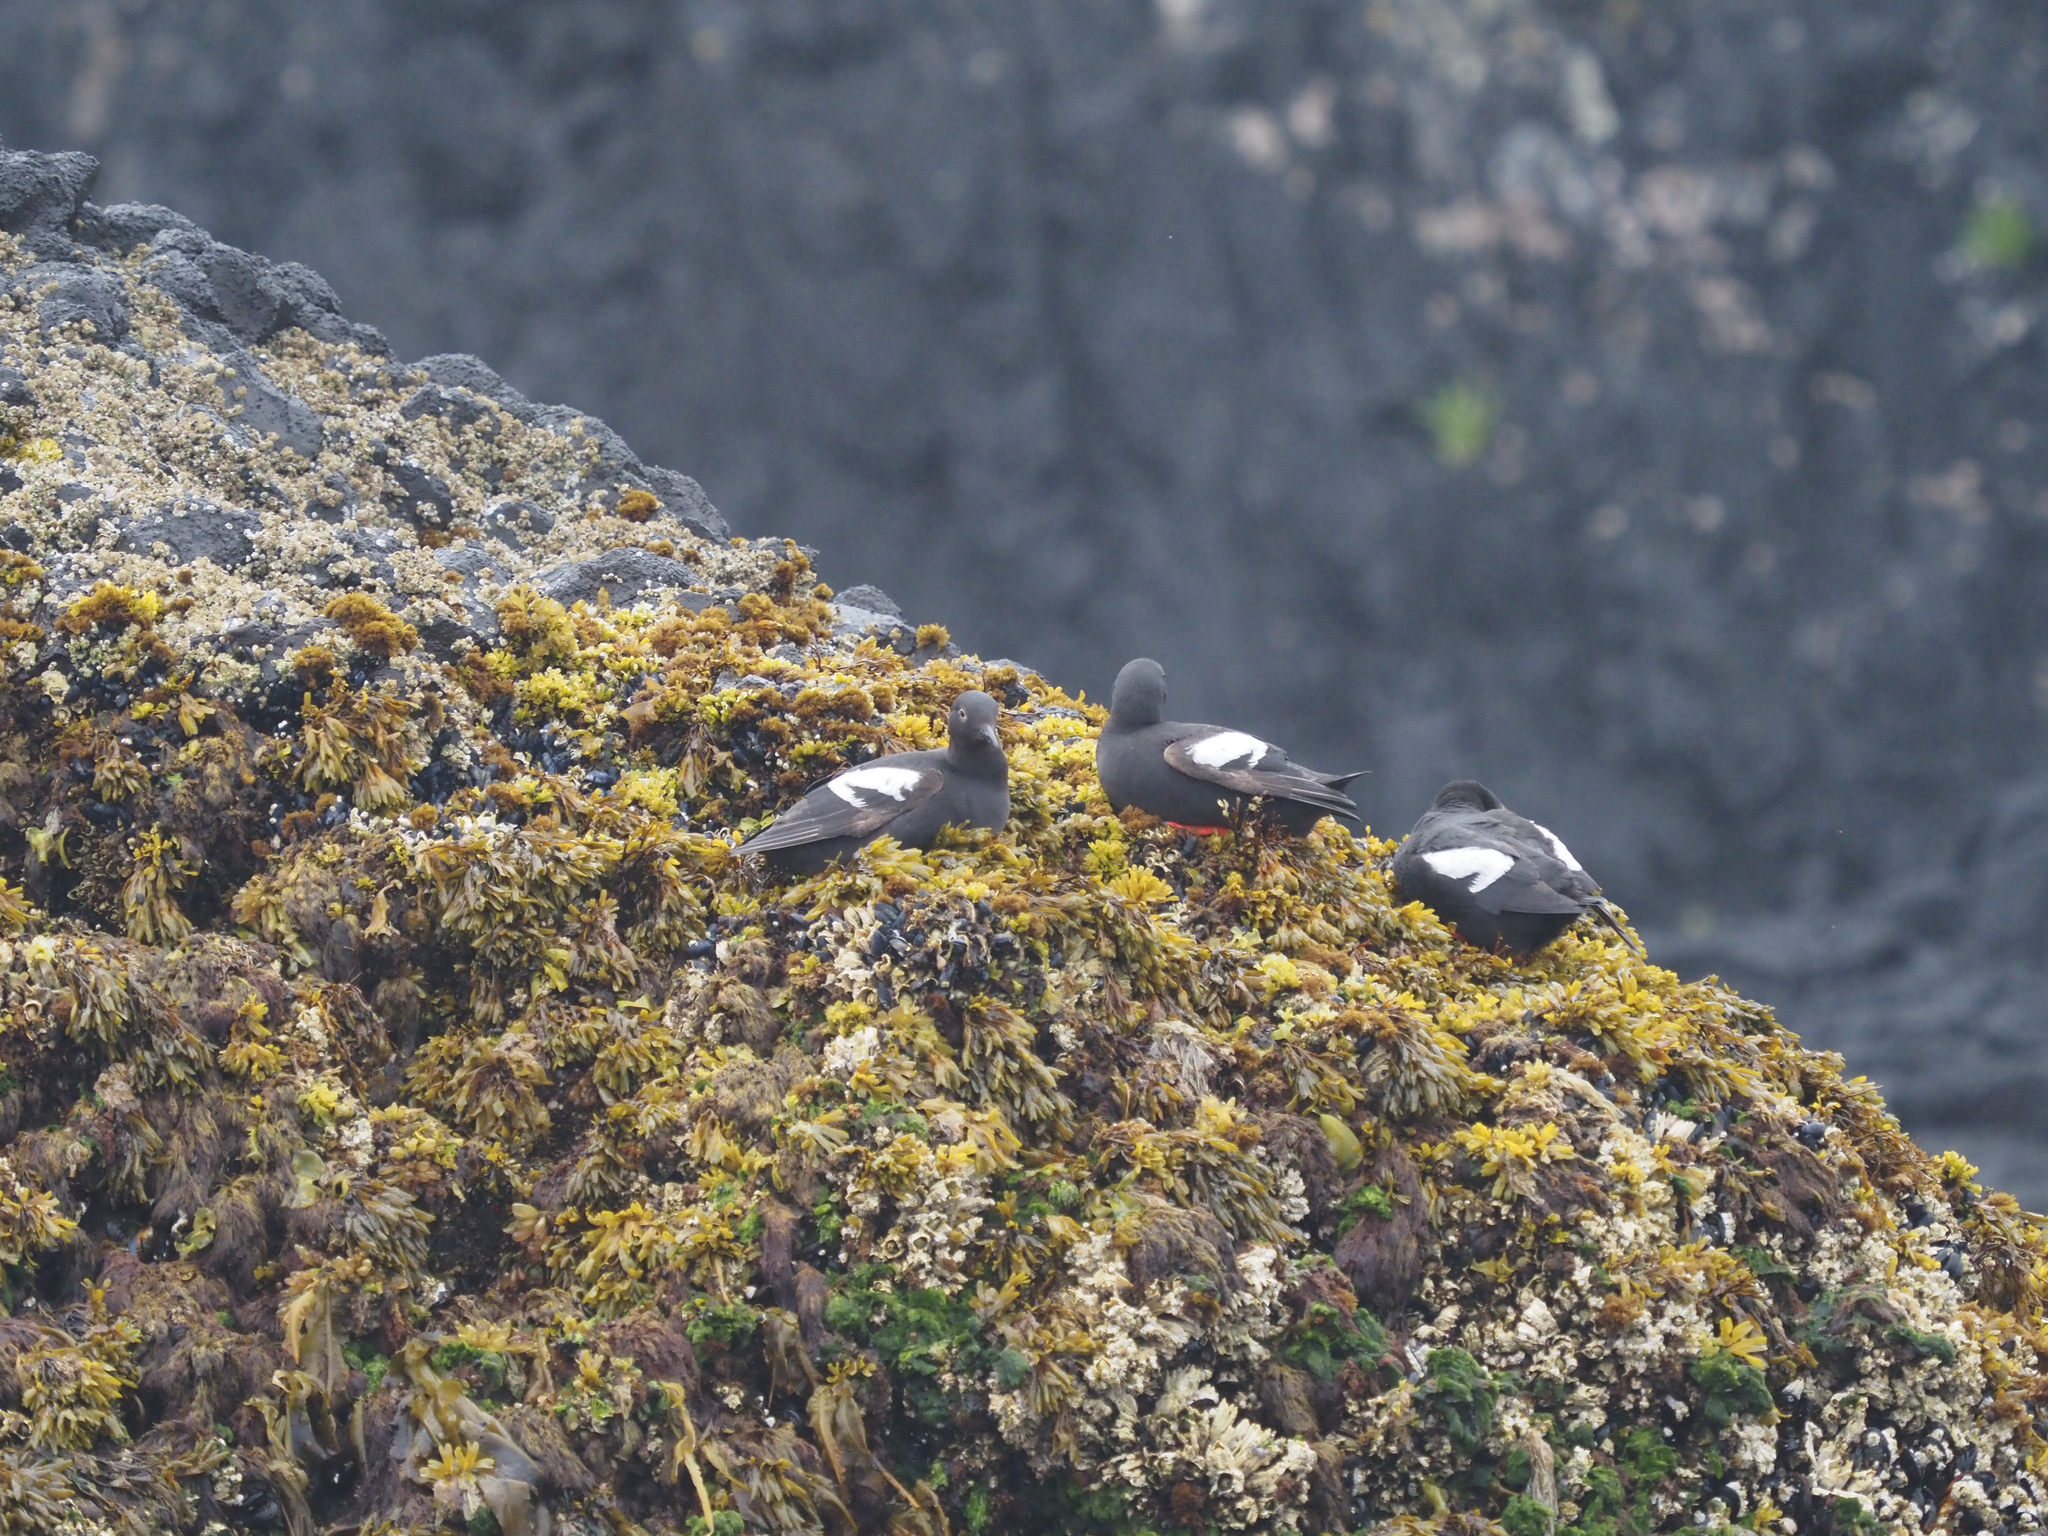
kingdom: Animalia
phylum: Chordata
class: Aves
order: Charadriiformes
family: Alcidae
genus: Cepphus
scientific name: Cepphus columba
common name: Pigeon guillemot
